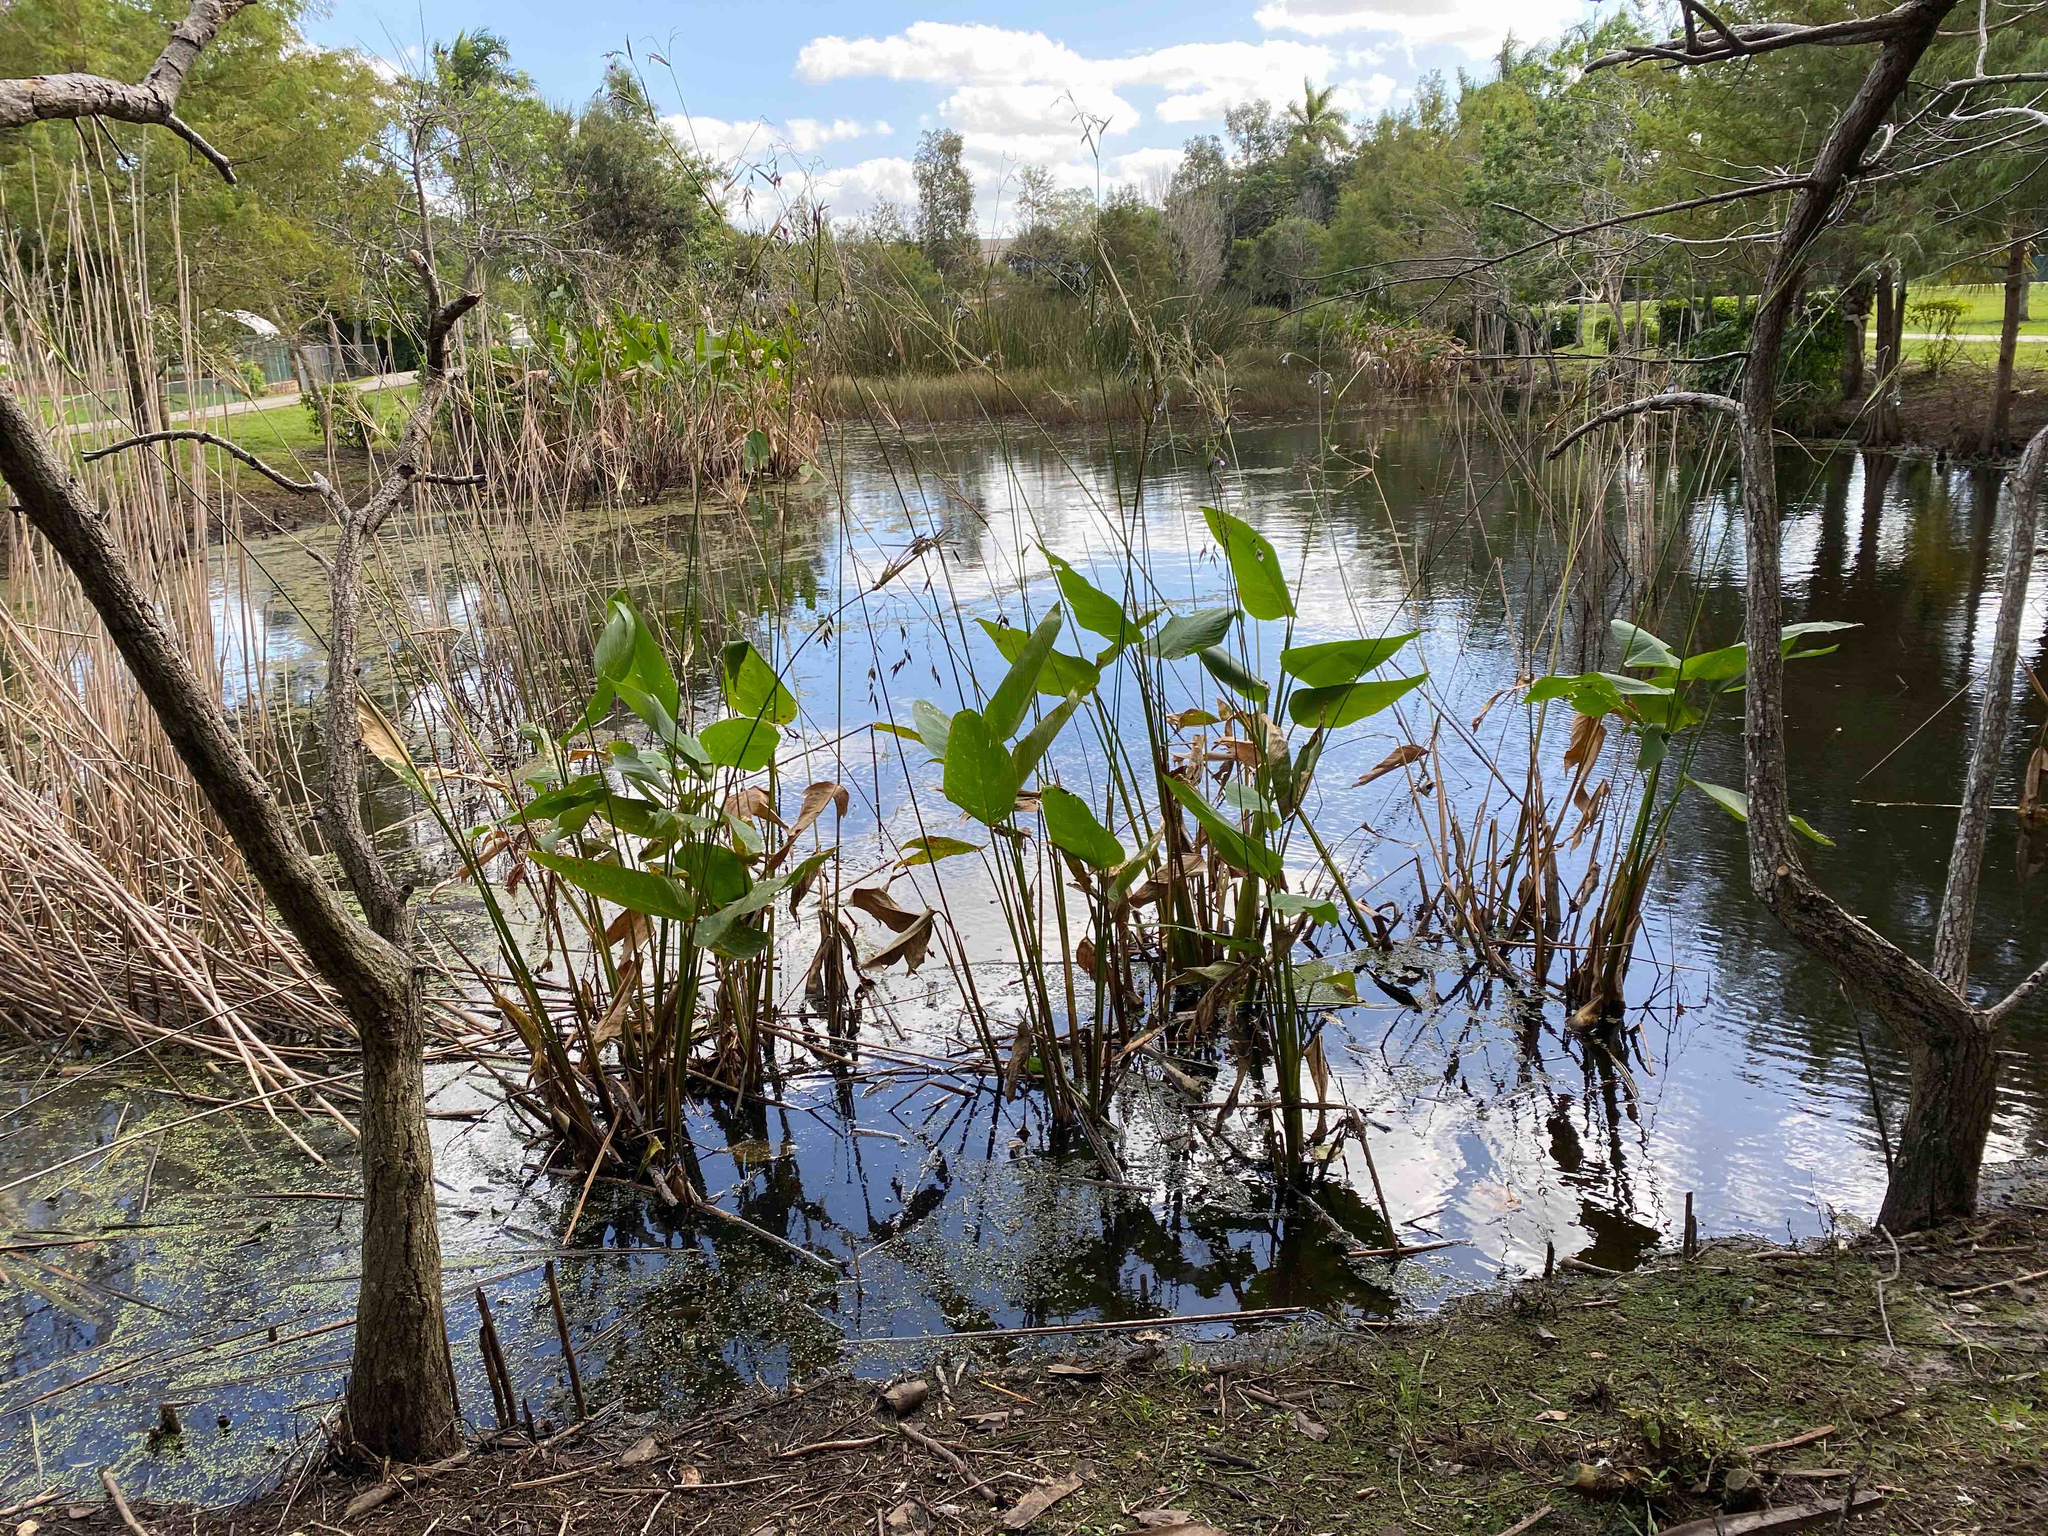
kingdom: Plantae
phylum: Tracheophyta
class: Liliopsida
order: Zingiberales
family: Marantaceae
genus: Thalia
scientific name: Thalia geniculata
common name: Arrowroot
